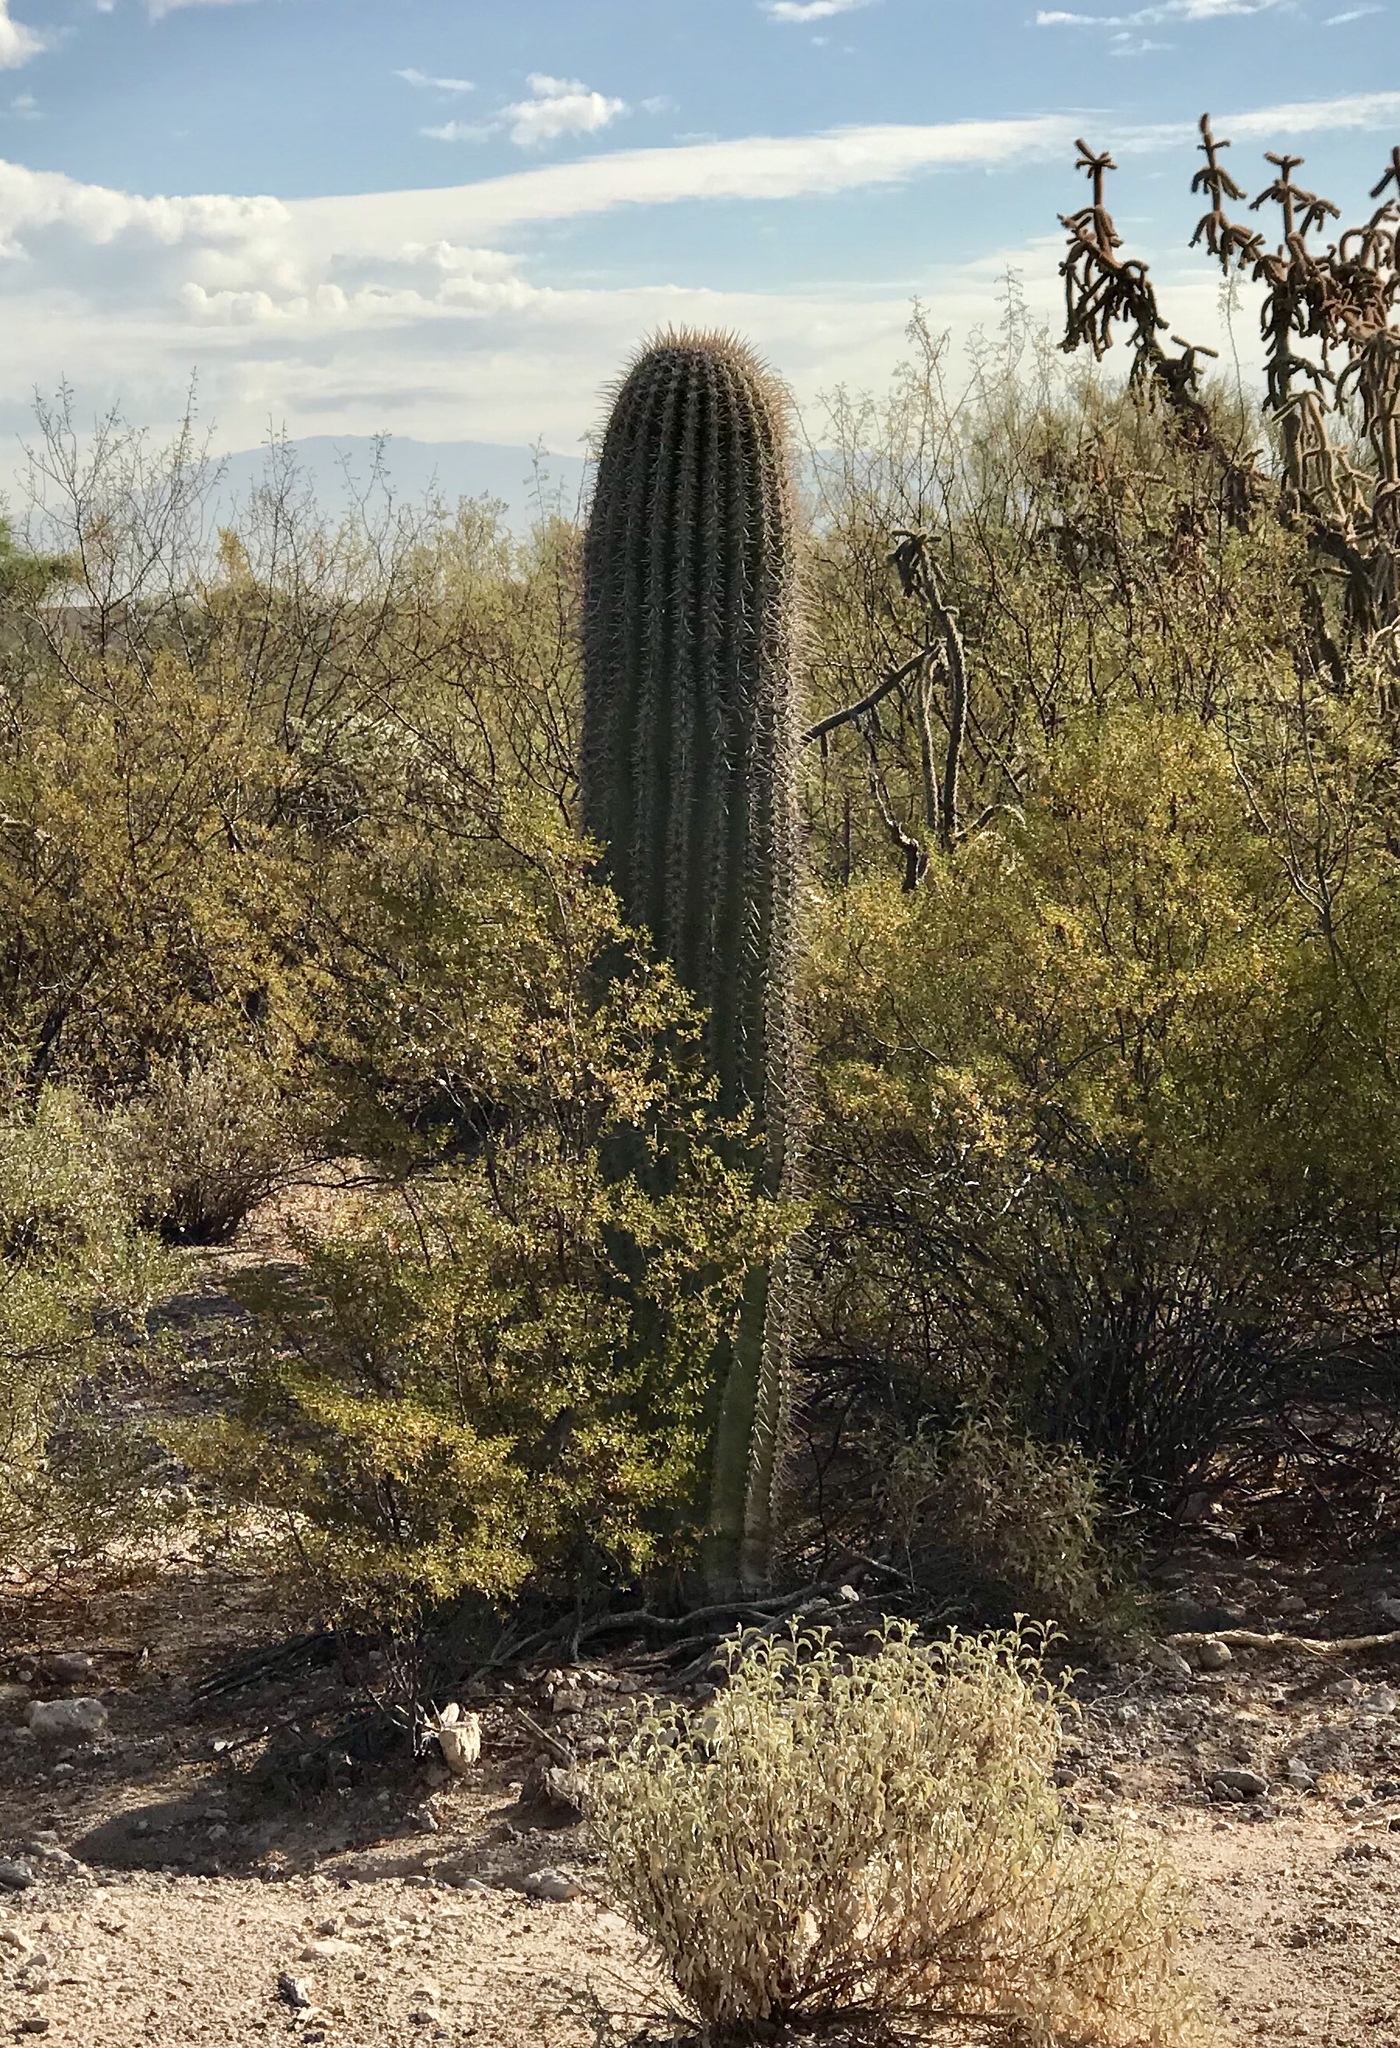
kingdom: Plantae
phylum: Tracheophyta
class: Magnoliopsida
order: Caryophyllales
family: Cactaceae
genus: Carnegiea
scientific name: Carnegiea gigantea
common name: Saguaro
